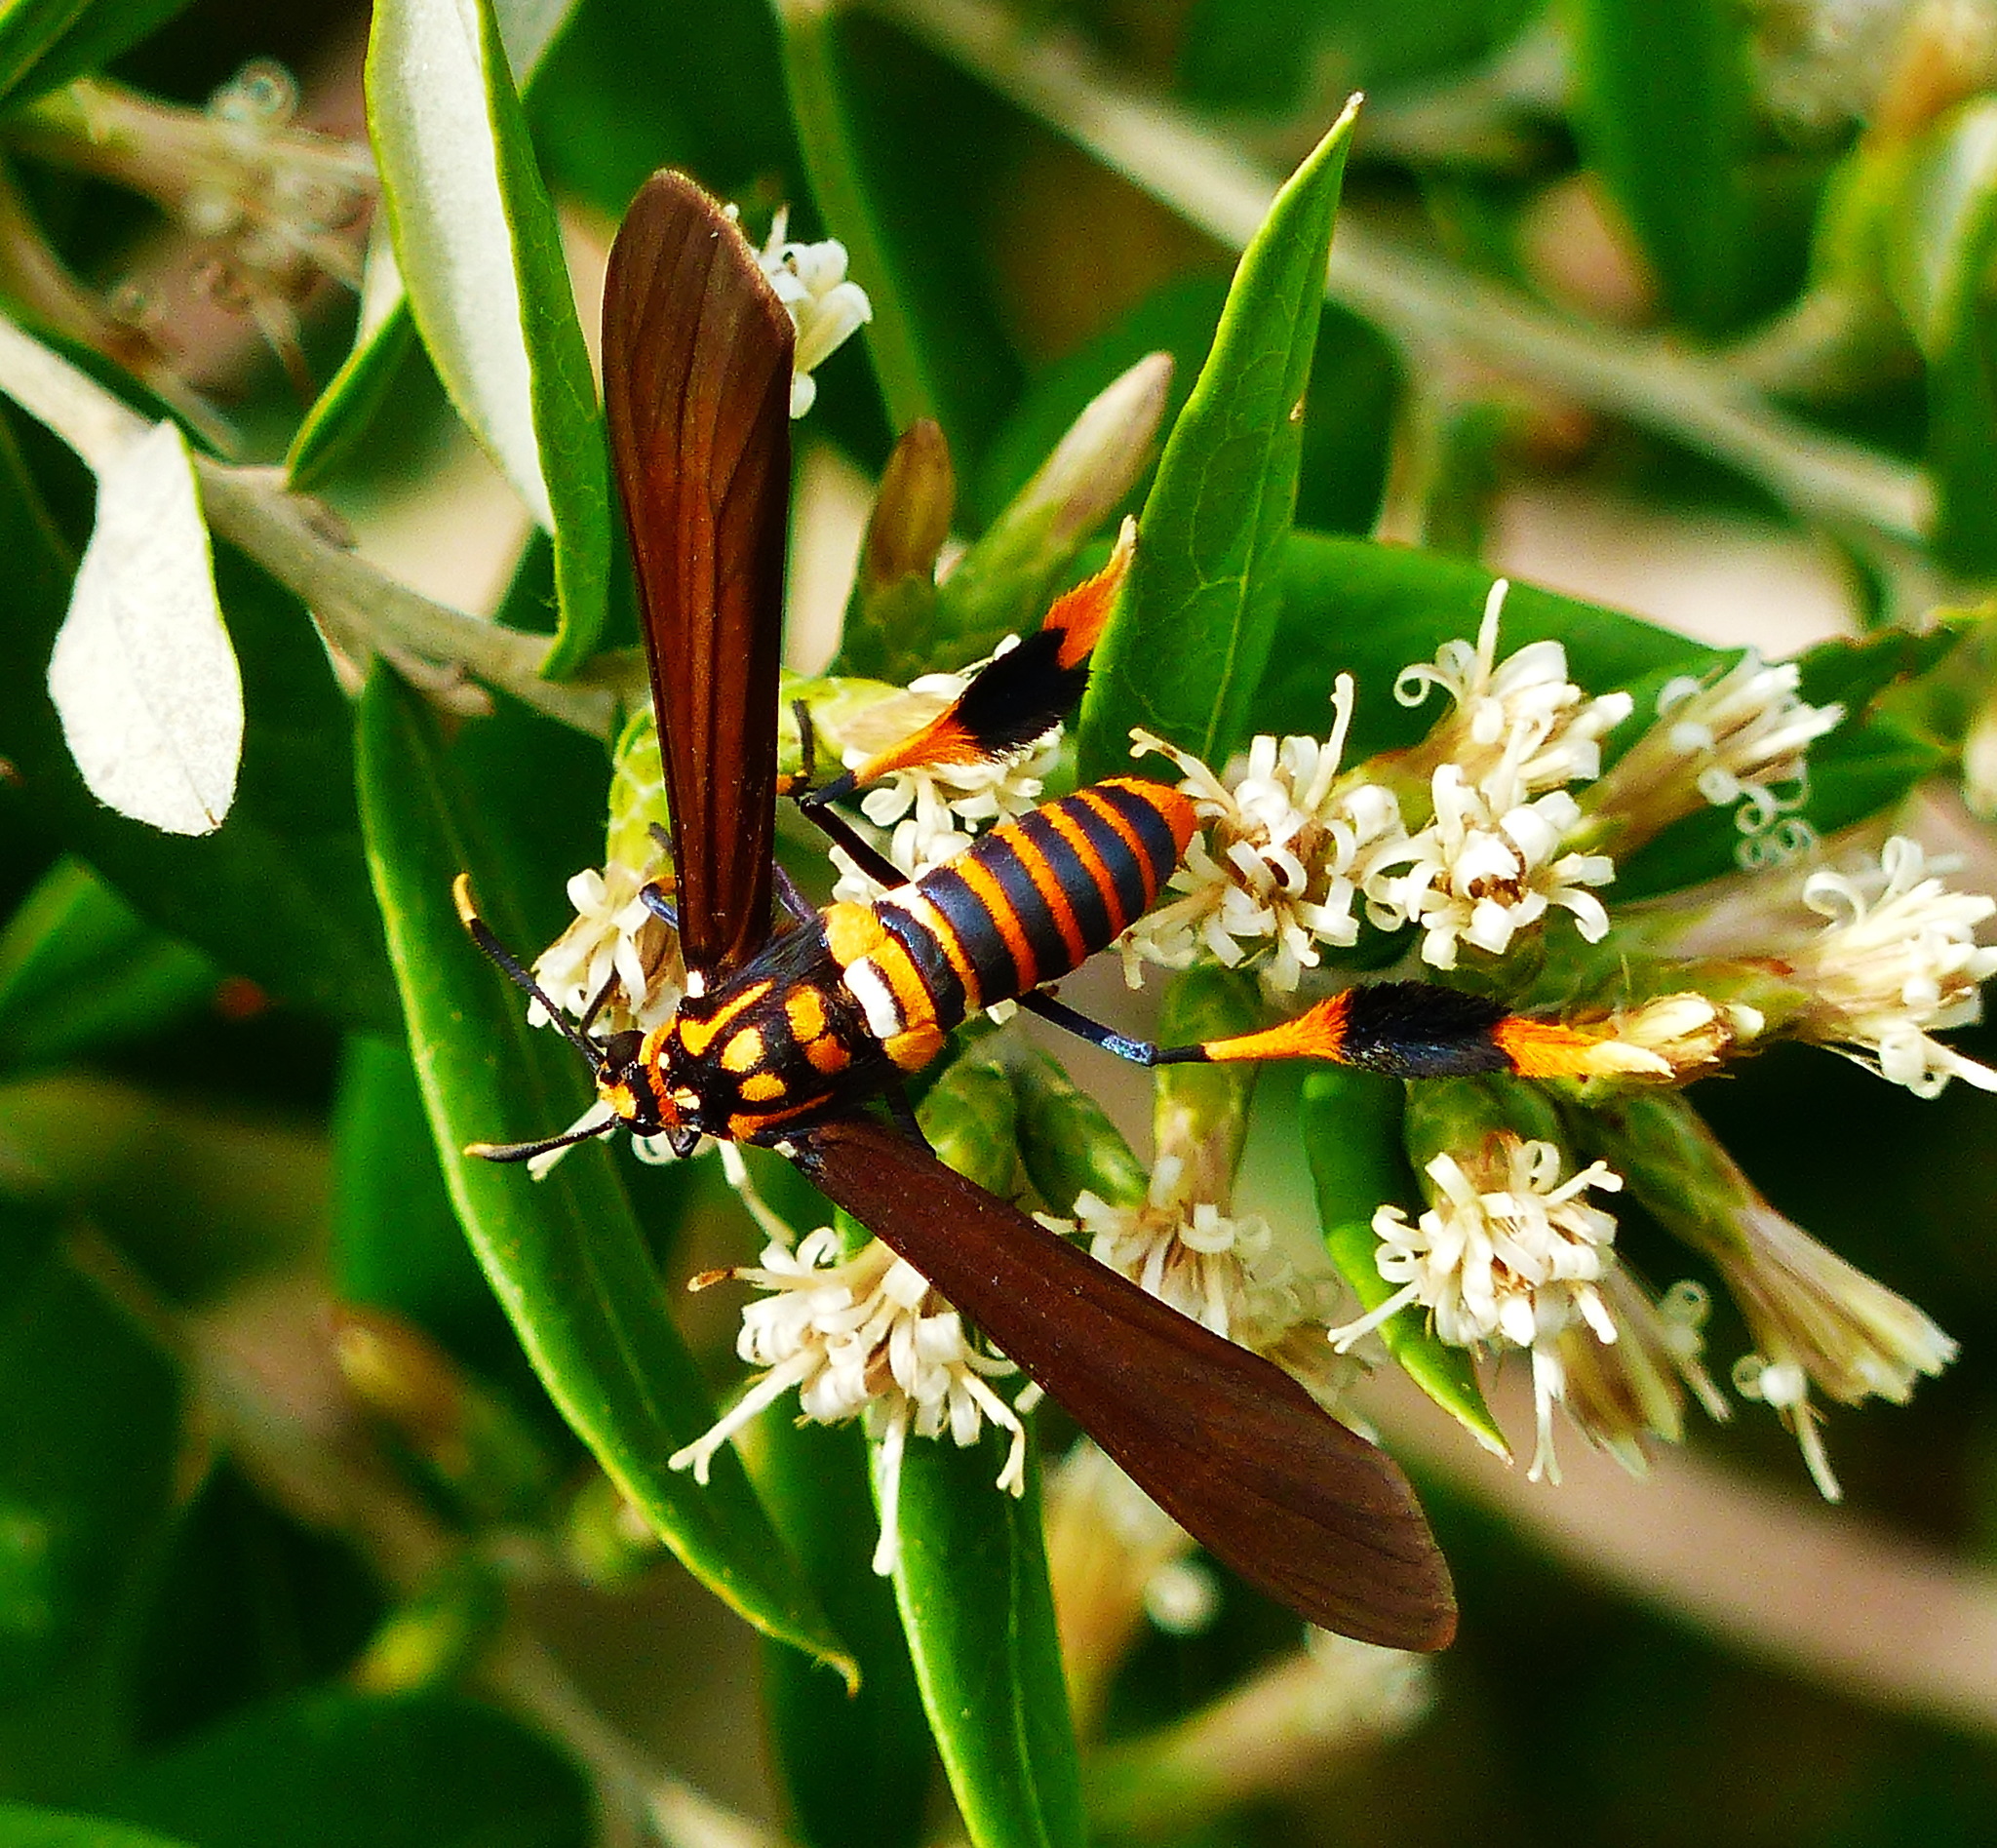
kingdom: Animalia
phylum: Arthropoda
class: Insecta
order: Lepidoptera
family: Erebidae
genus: Horama
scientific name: Horama panthalon
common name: Texas wasp moth
